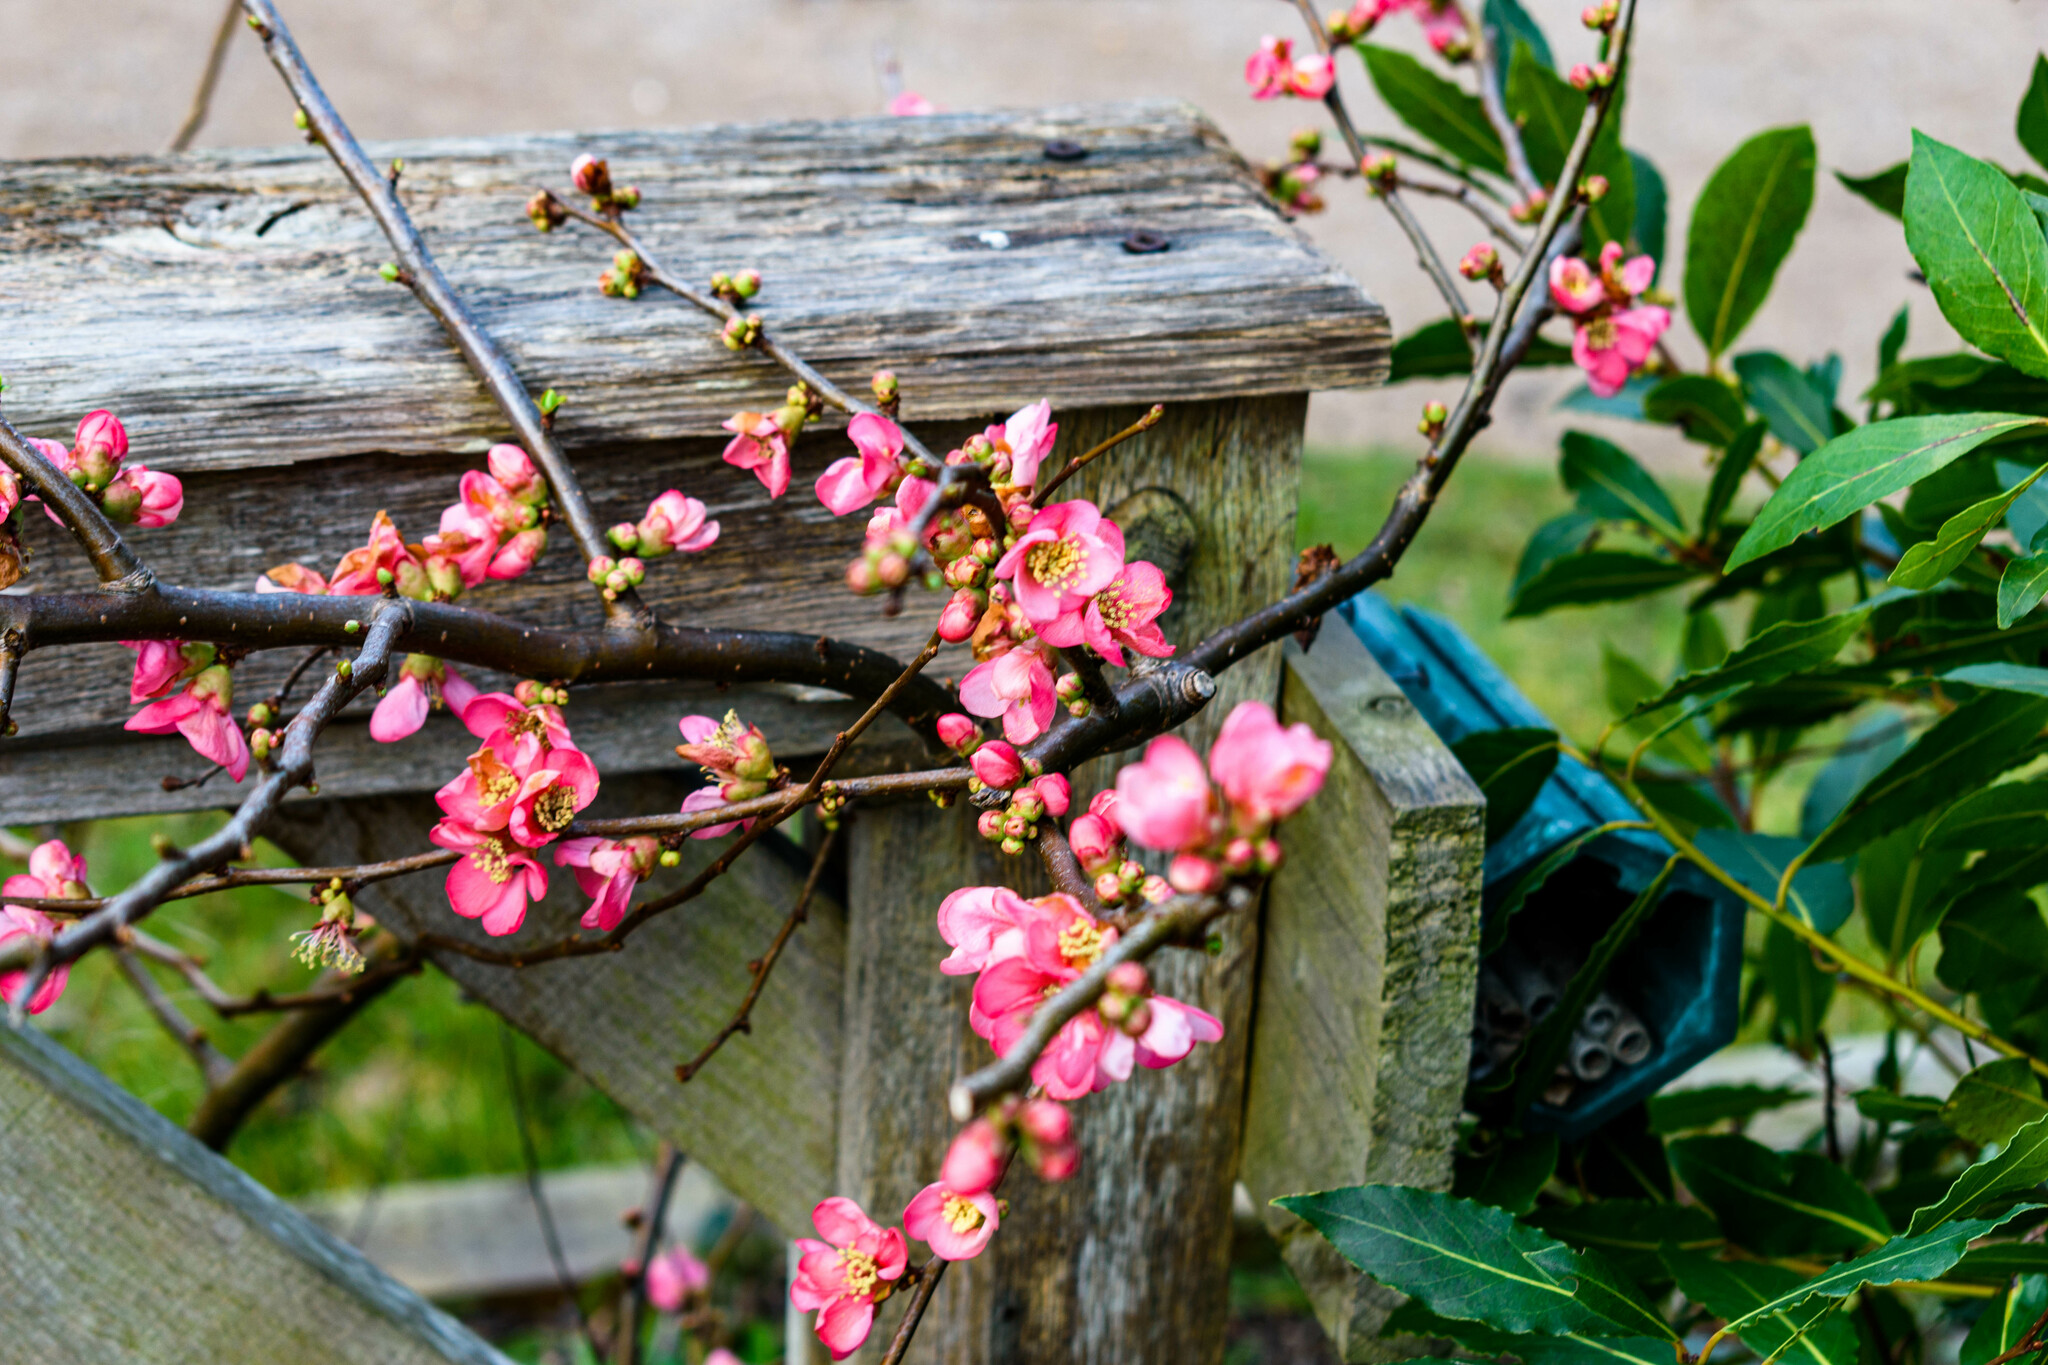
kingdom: Plantae
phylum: Tracheophyta
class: Magnoliopsida
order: Rosales
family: Rosaceae
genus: Chaenomeles
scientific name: Chaenomeles speciosa
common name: Japanese quince
